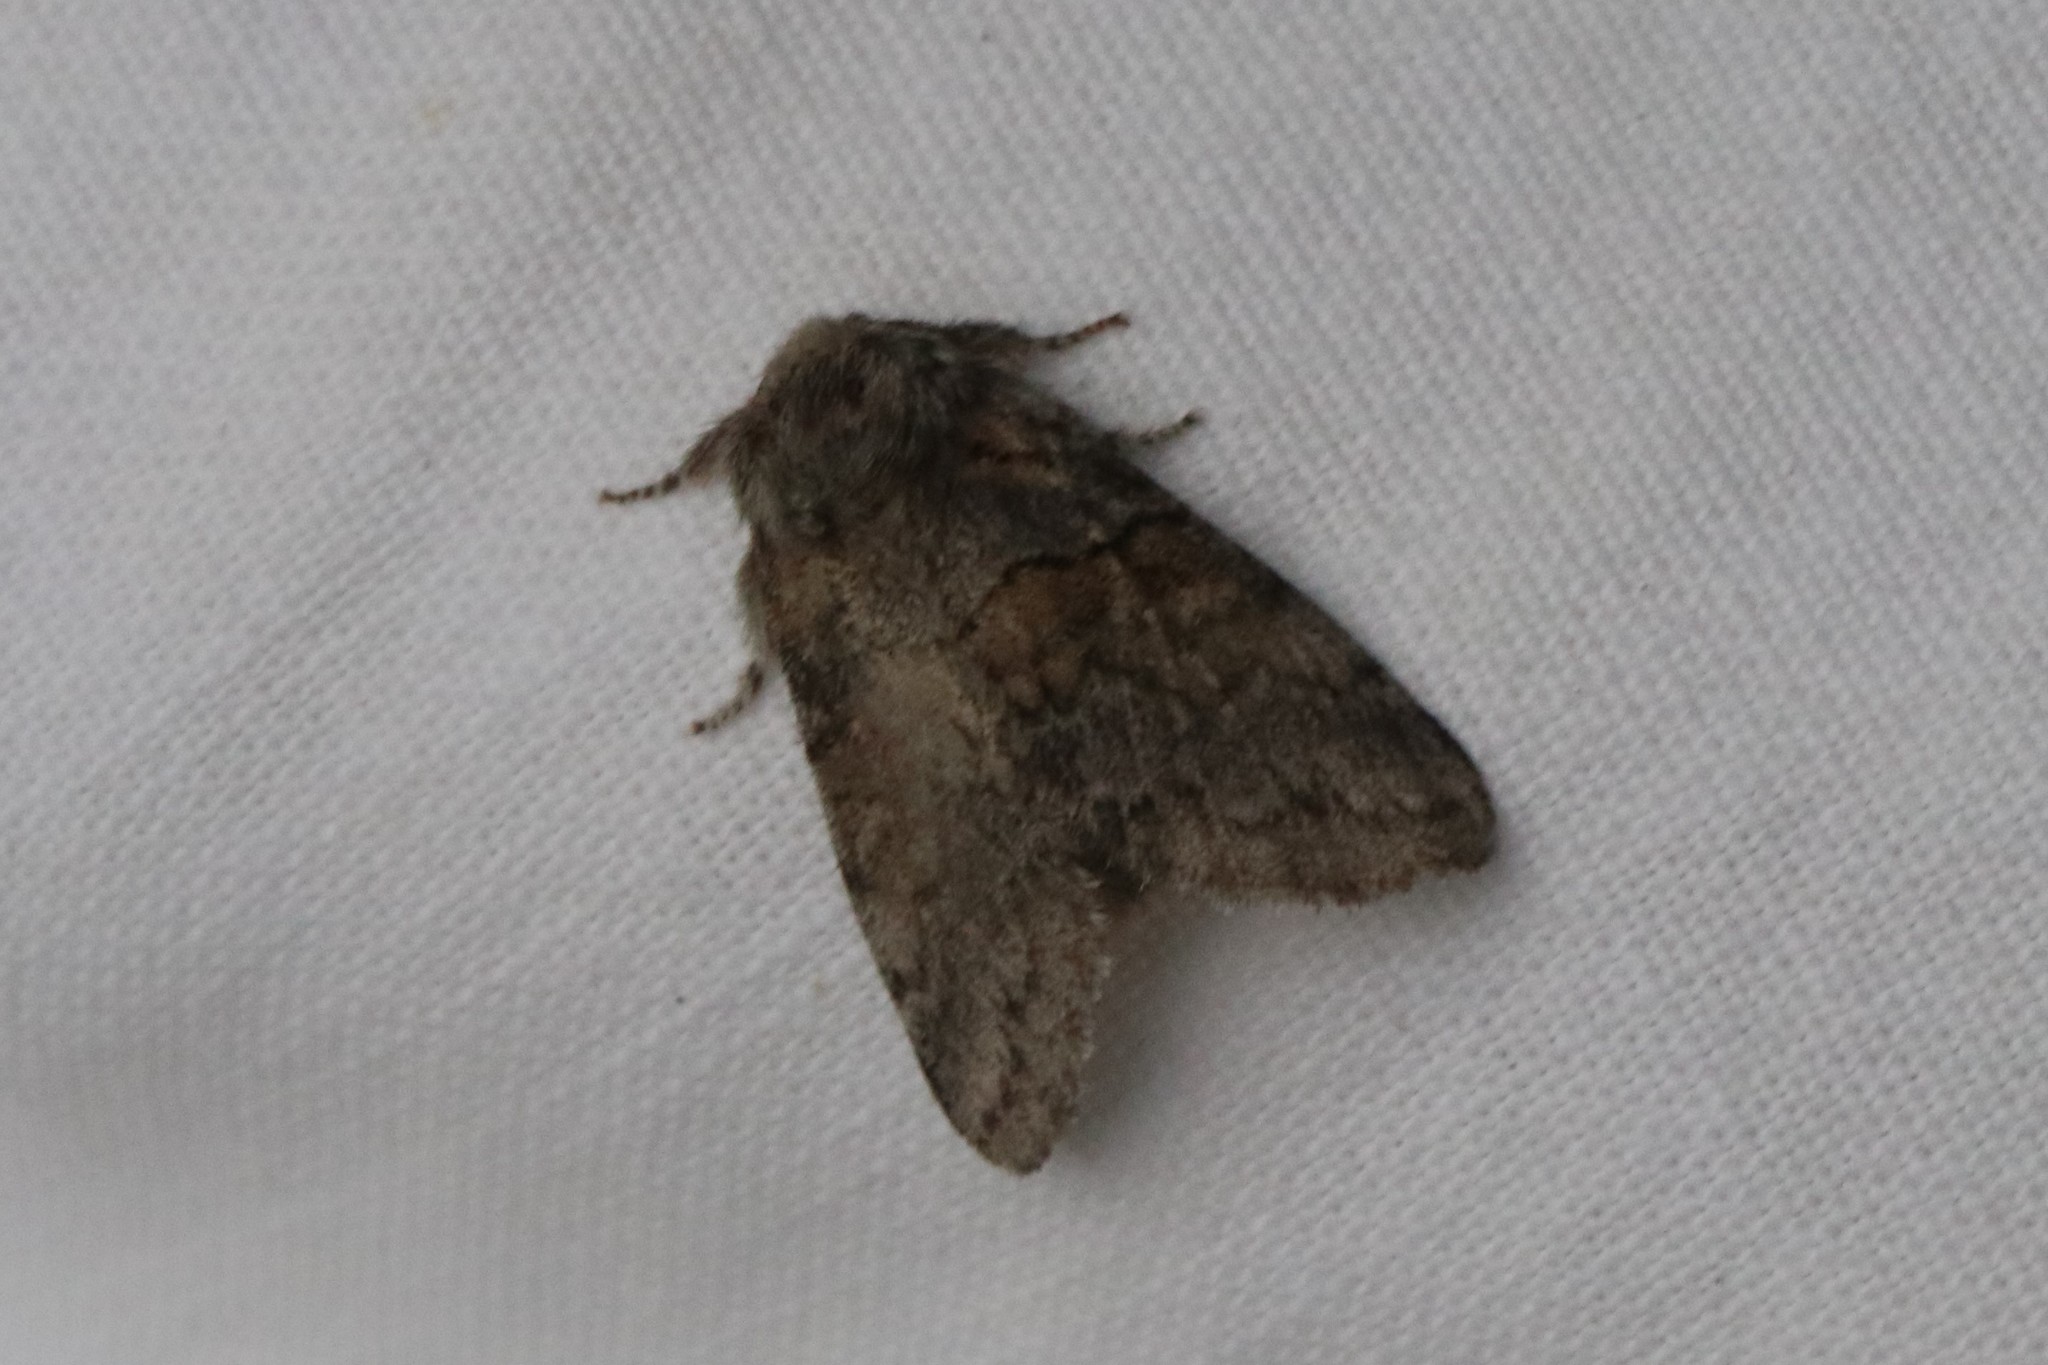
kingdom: Animalia
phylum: Arthropoda
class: Insecta
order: Lepidoptera
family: Notodontidae
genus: Gluphisia
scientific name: Gluphisia septentrionis
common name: Common gluphisia
